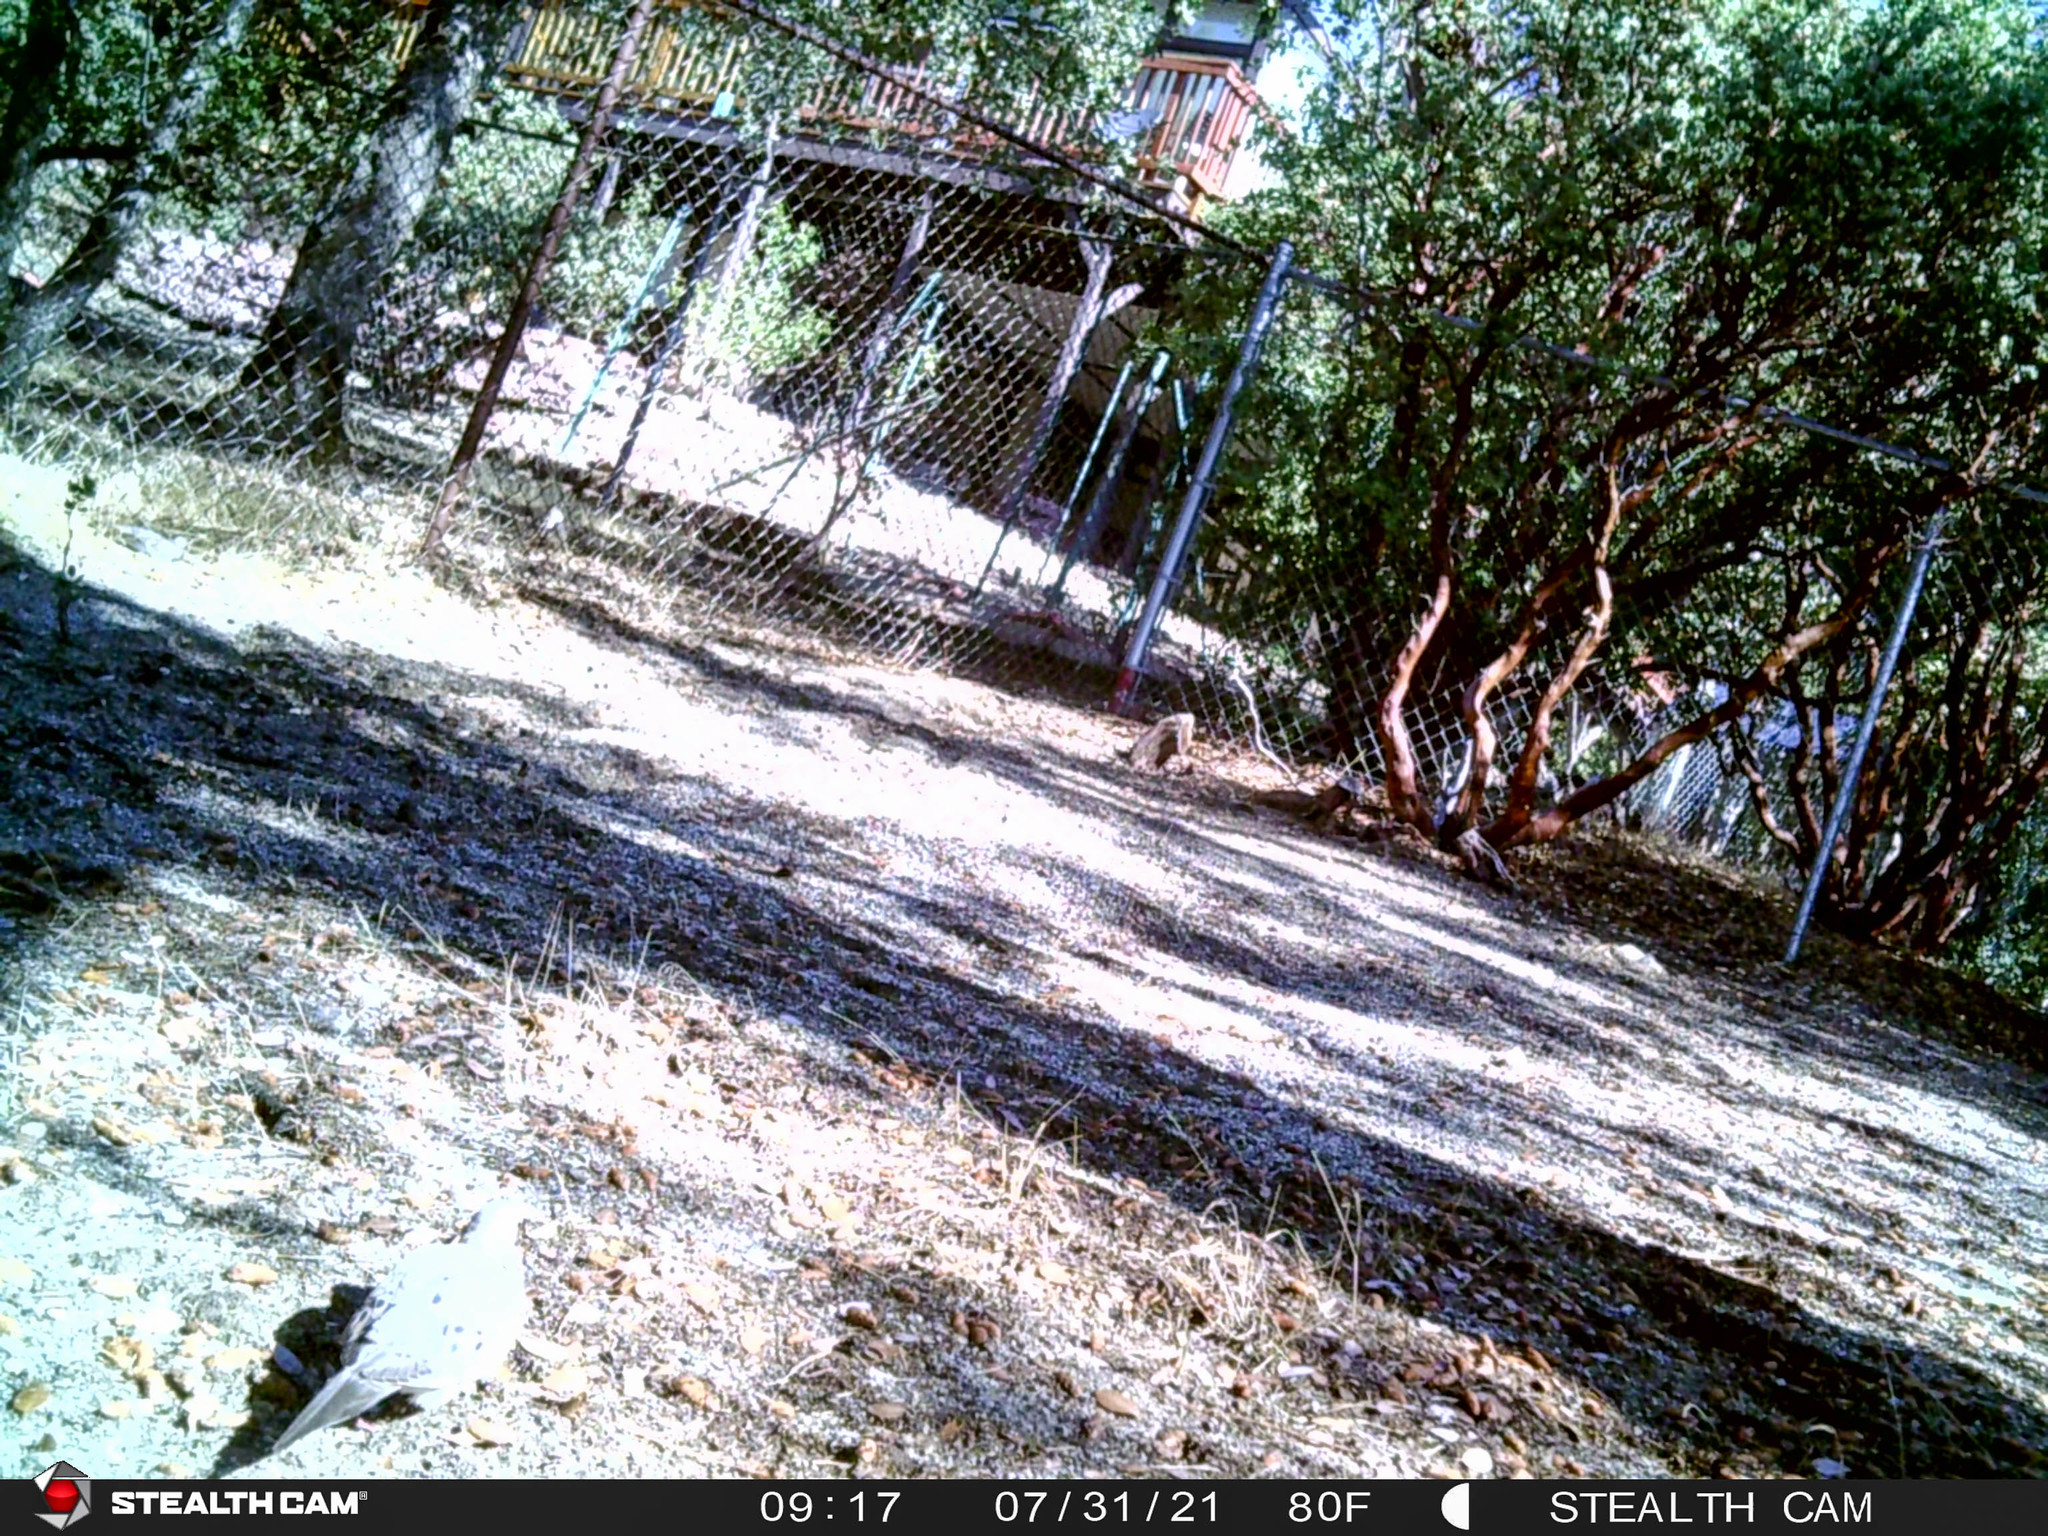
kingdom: Animalia
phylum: Chordata
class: Aves
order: Columbiformes
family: Columbidae
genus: Zenaida
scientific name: Zenaida macroura
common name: Mourning dove
